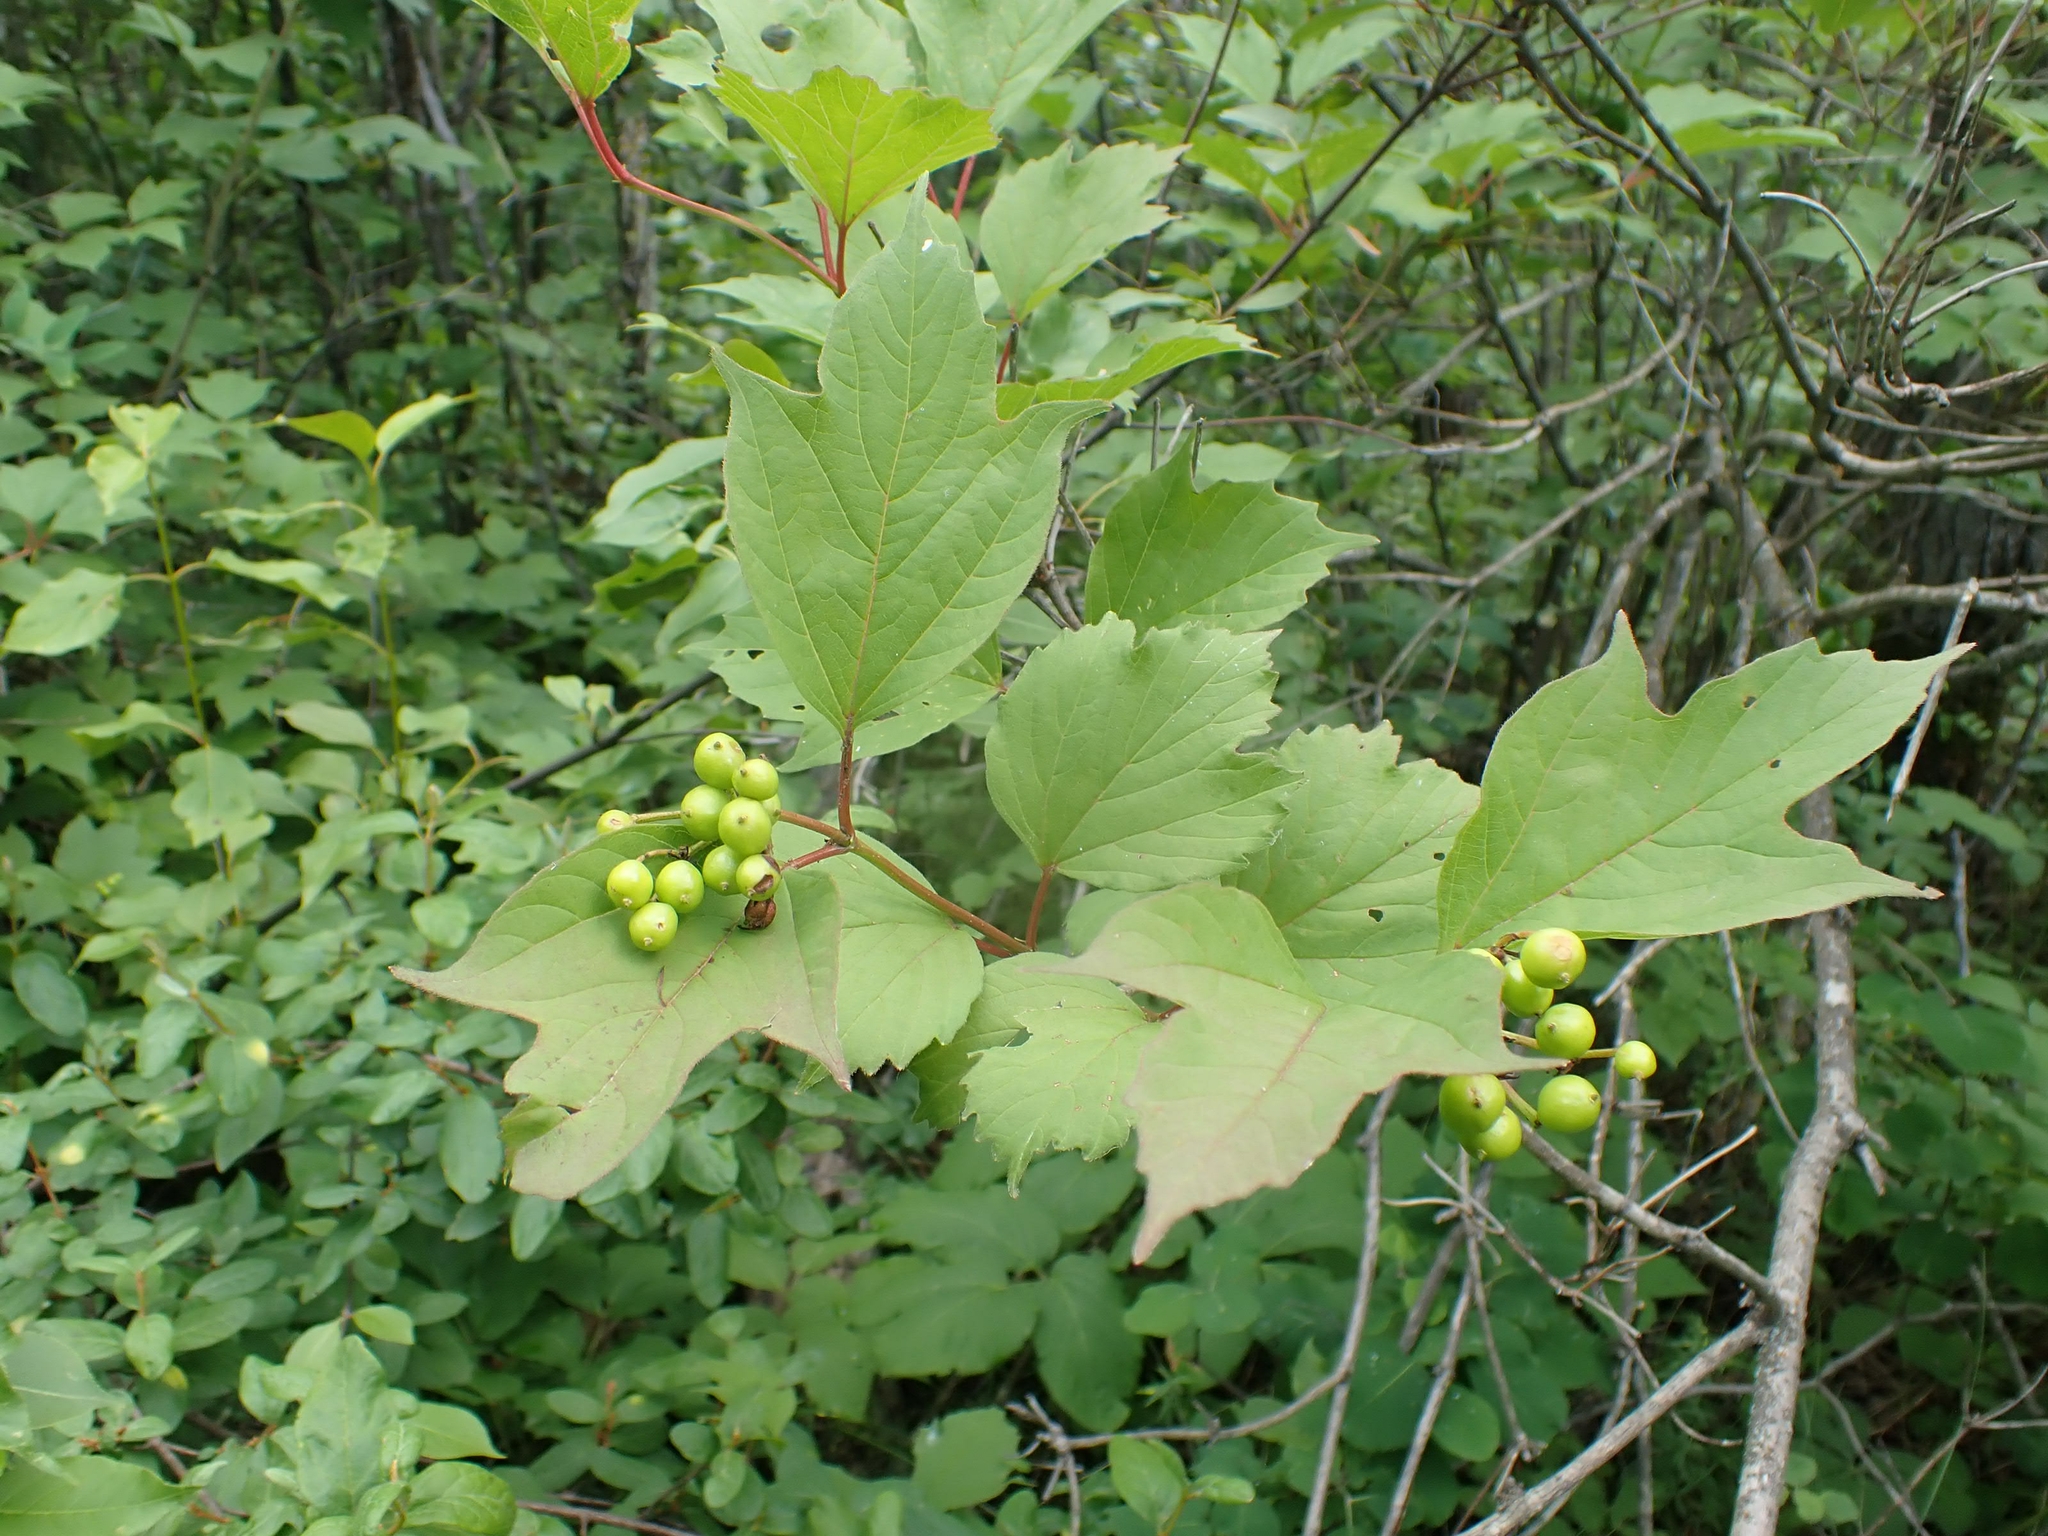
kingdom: Plantae
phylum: Tracheophyta
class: Magnoliopsida
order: Dipsacales
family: Viburnaceae
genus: Viburnum
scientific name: Viburnum trilobum
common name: American cranberrybush
